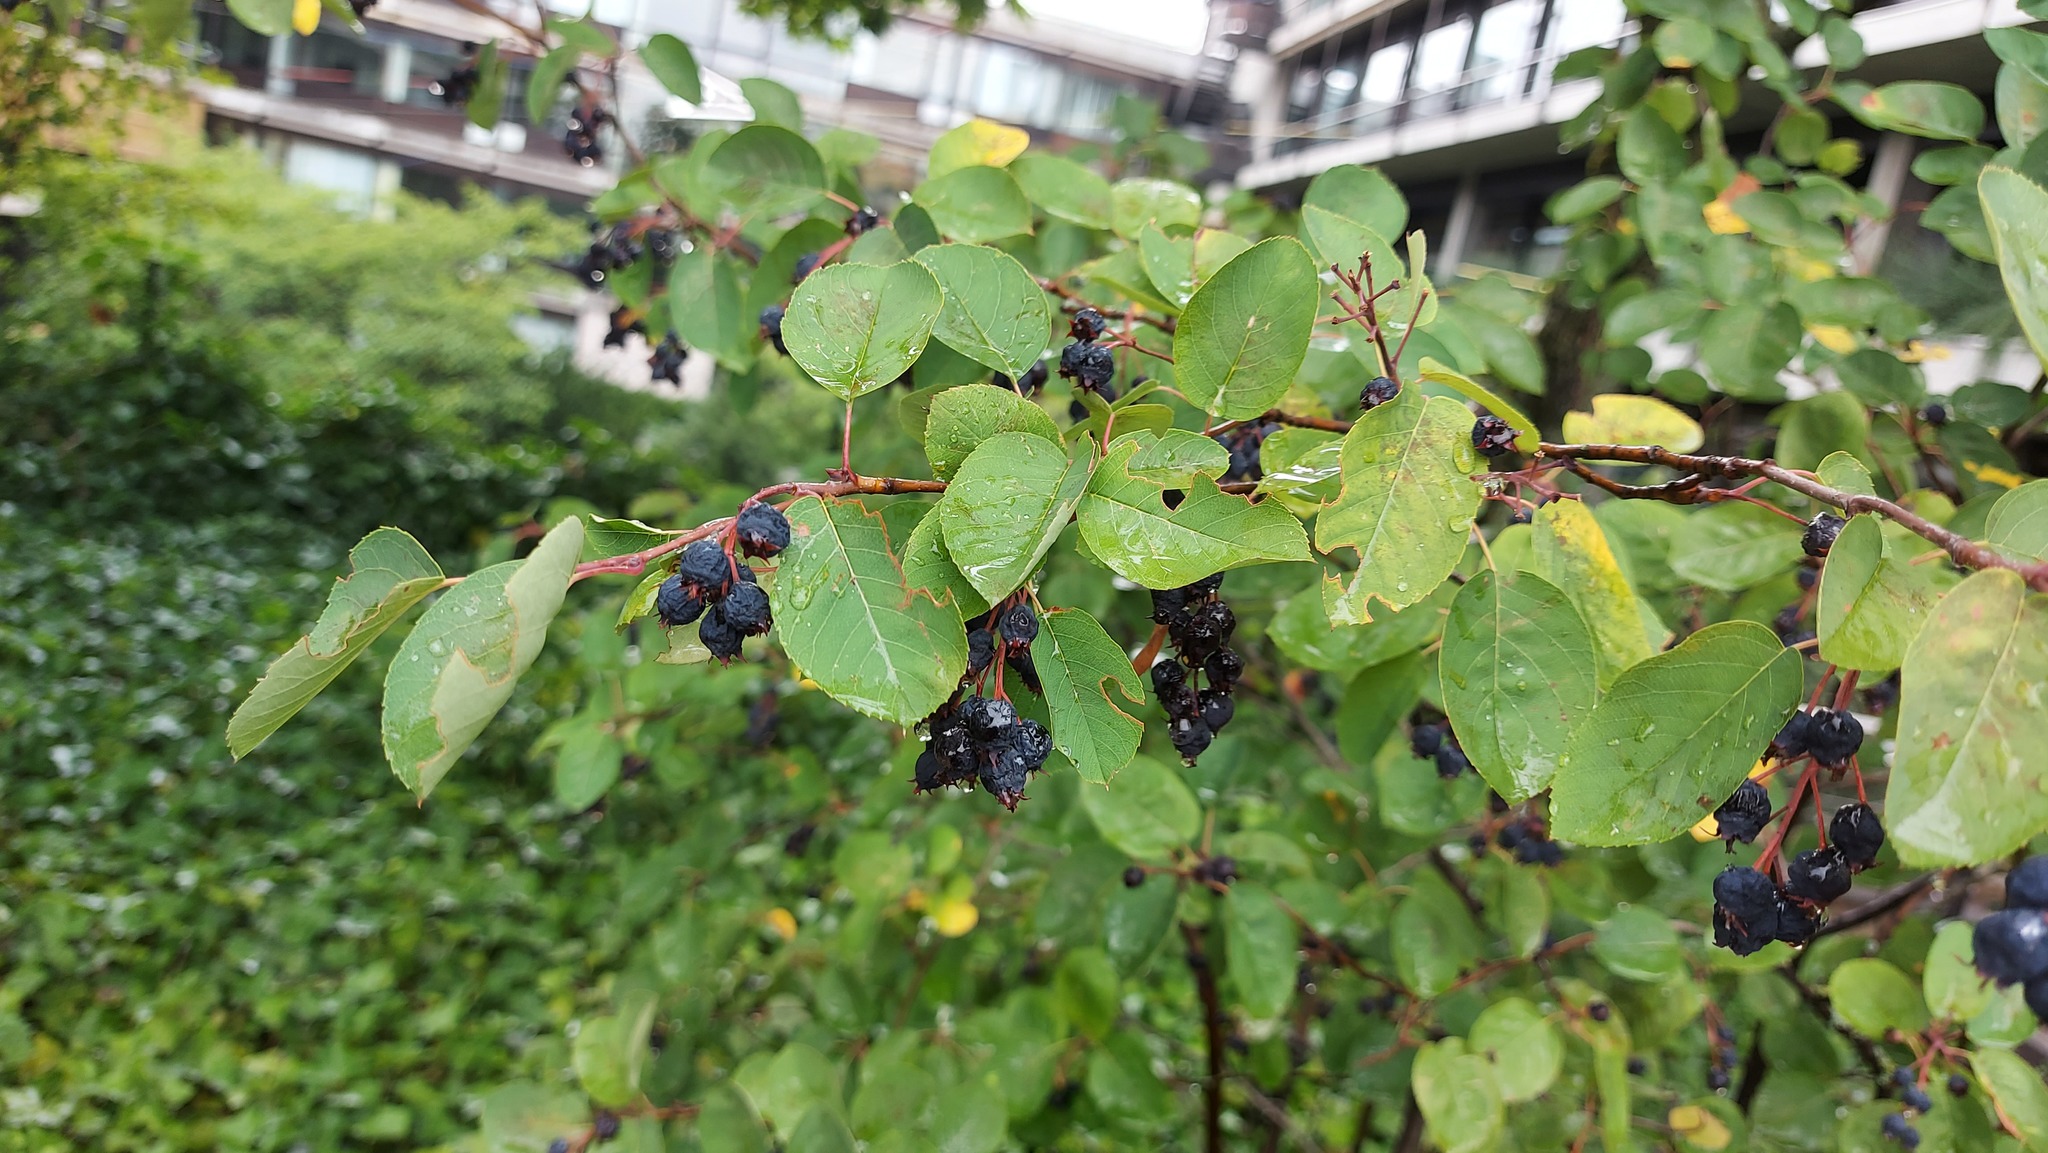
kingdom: Plantae
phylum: Tracheophyta
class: Magnoliopsida
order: Rosales
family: Rosaceae
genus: Amelanchier
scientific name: Amelanchier ovalis
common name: Serviceberry
